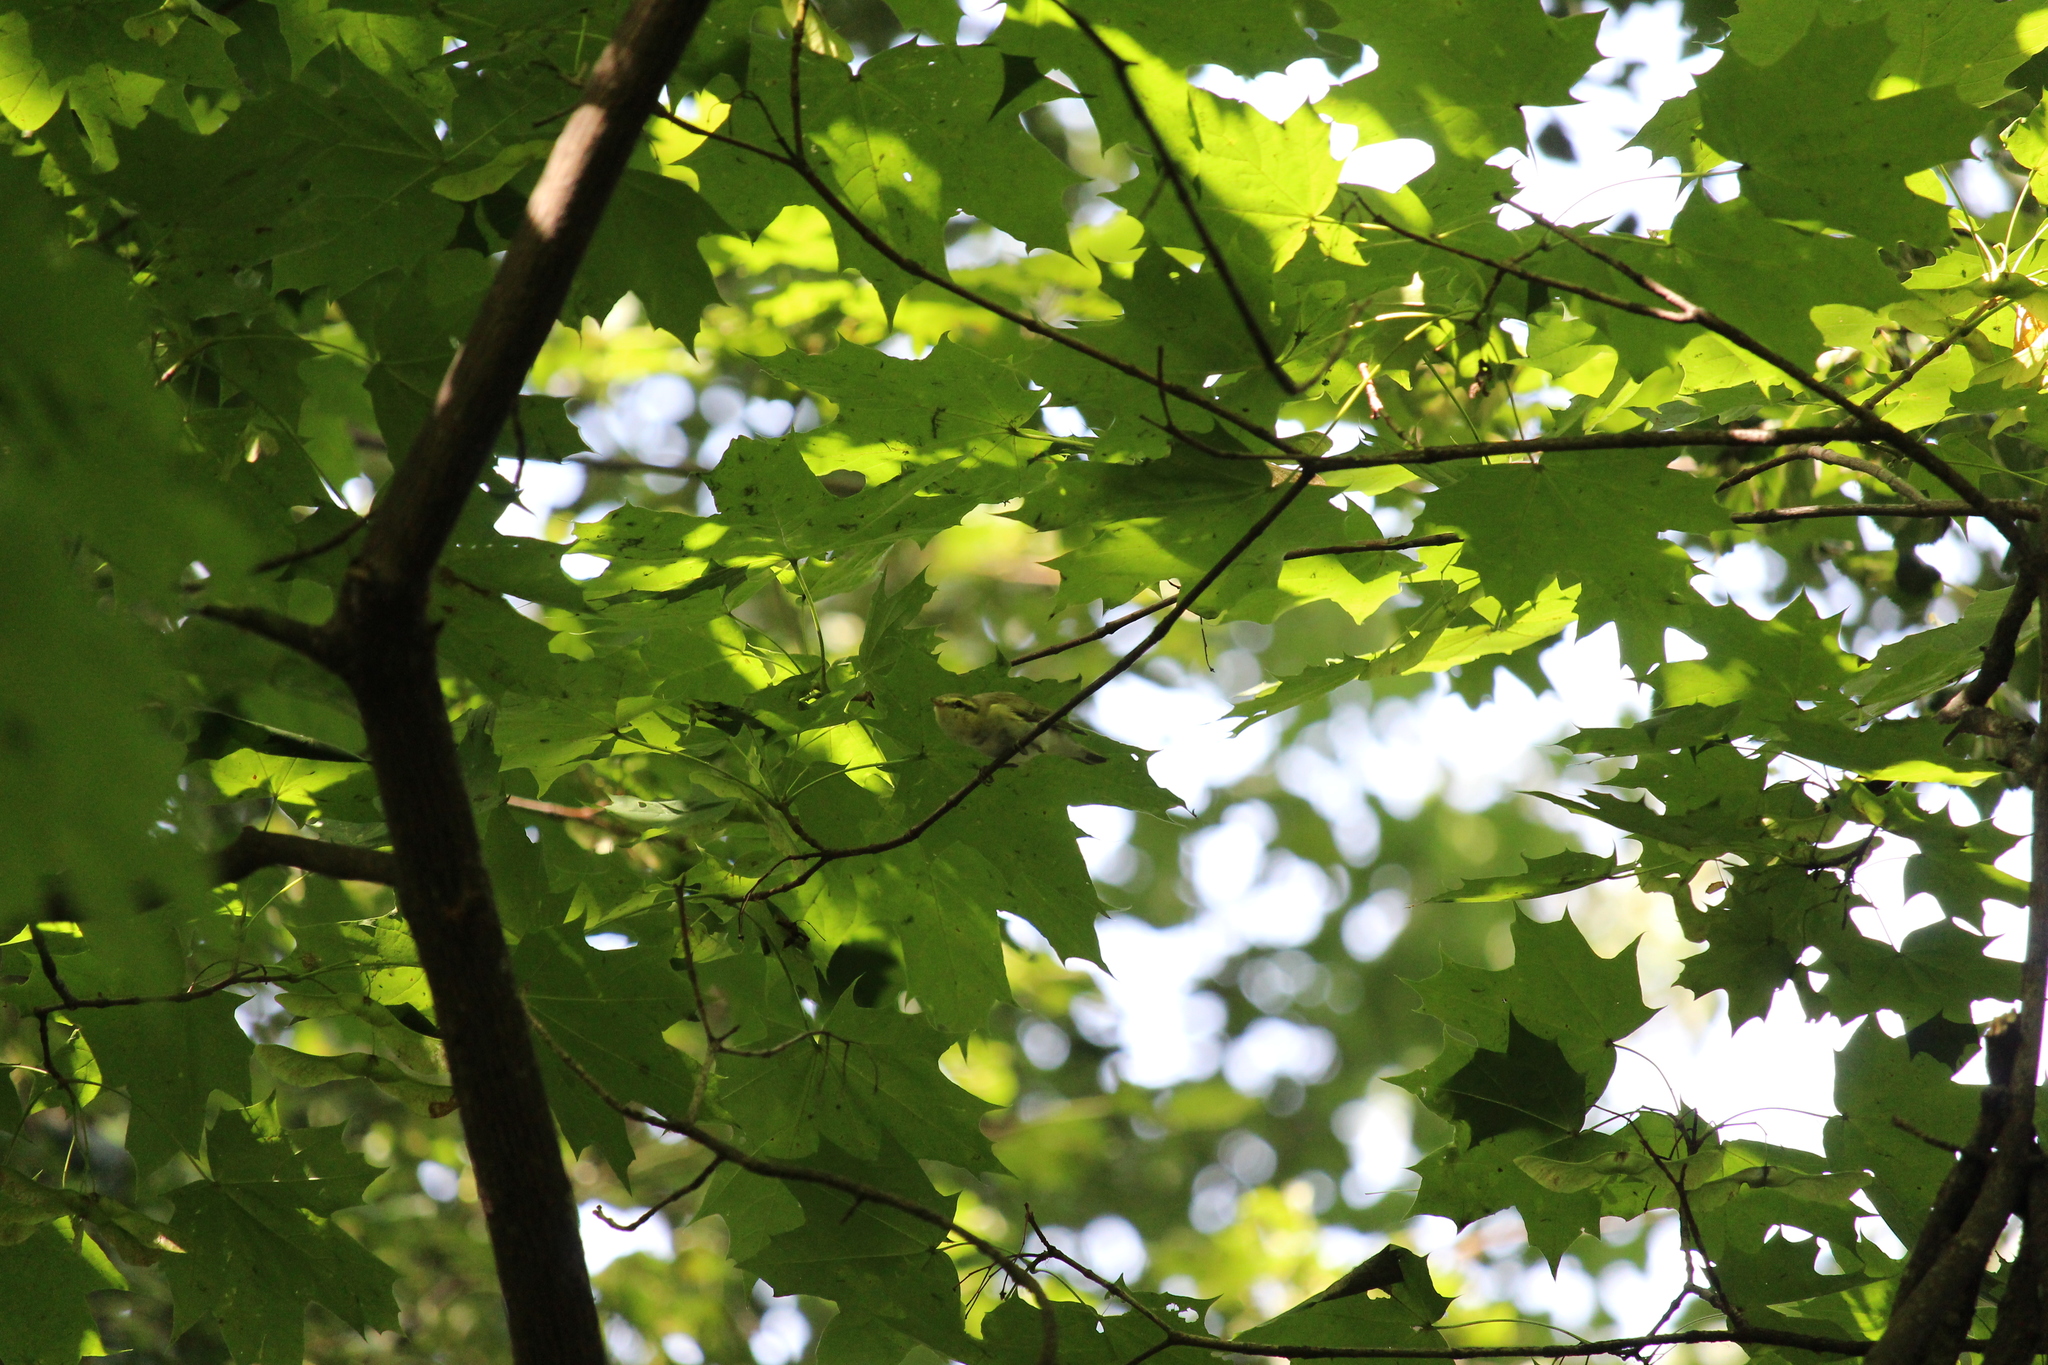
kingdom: Animalia
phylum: Chordata
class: Aves
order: Passeriformes
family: Phylloscopidae
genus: Phylloscopus
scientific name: Phylloscopus sibillatrix
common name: Wood warbler
